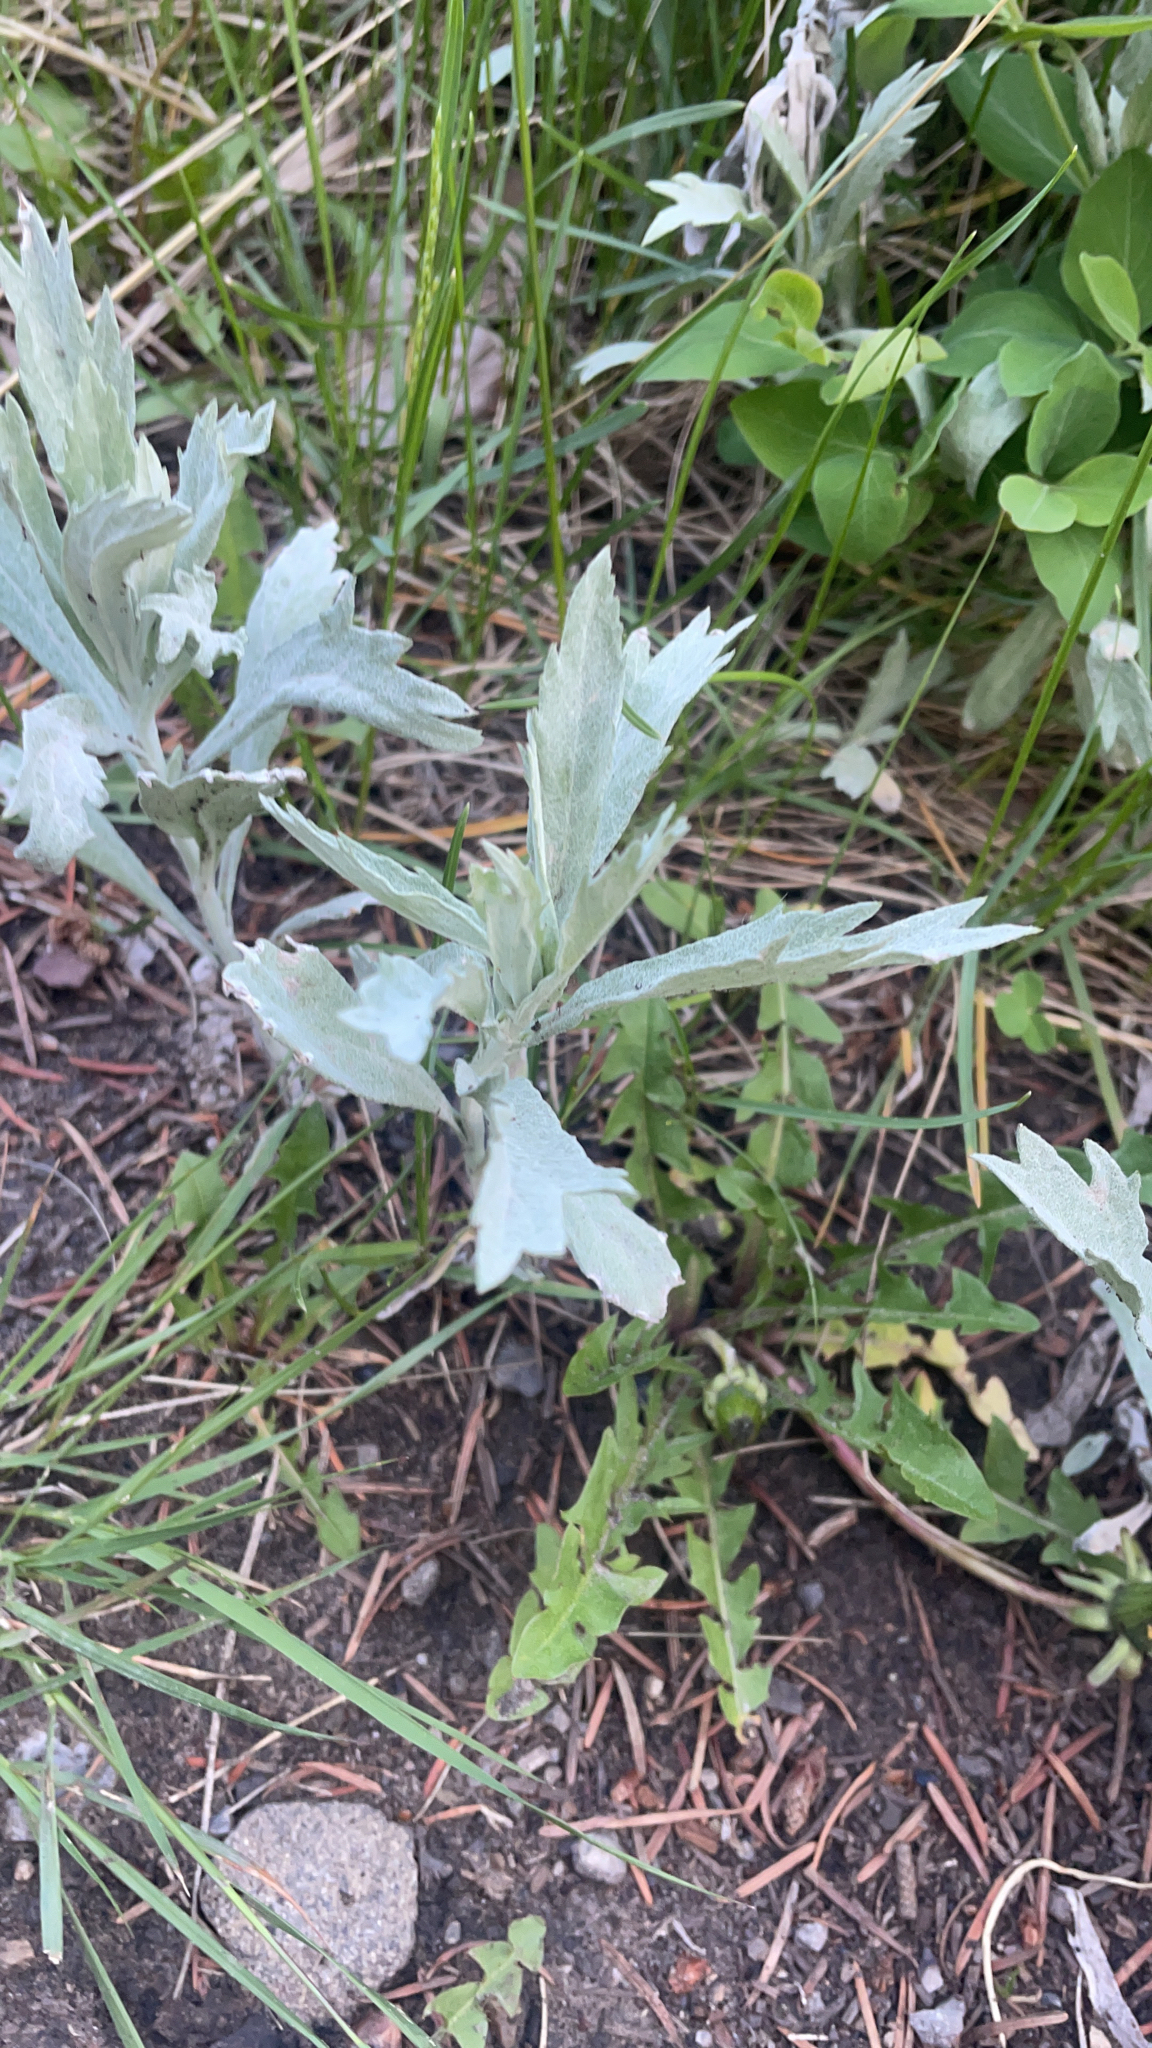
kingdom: Plantae
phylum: Tracheophyta
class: Magnoliopsida
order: Asterales
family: Asteraceae
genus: Artemisia
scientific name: Artemisia ludoviciana
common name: Western mugwort
